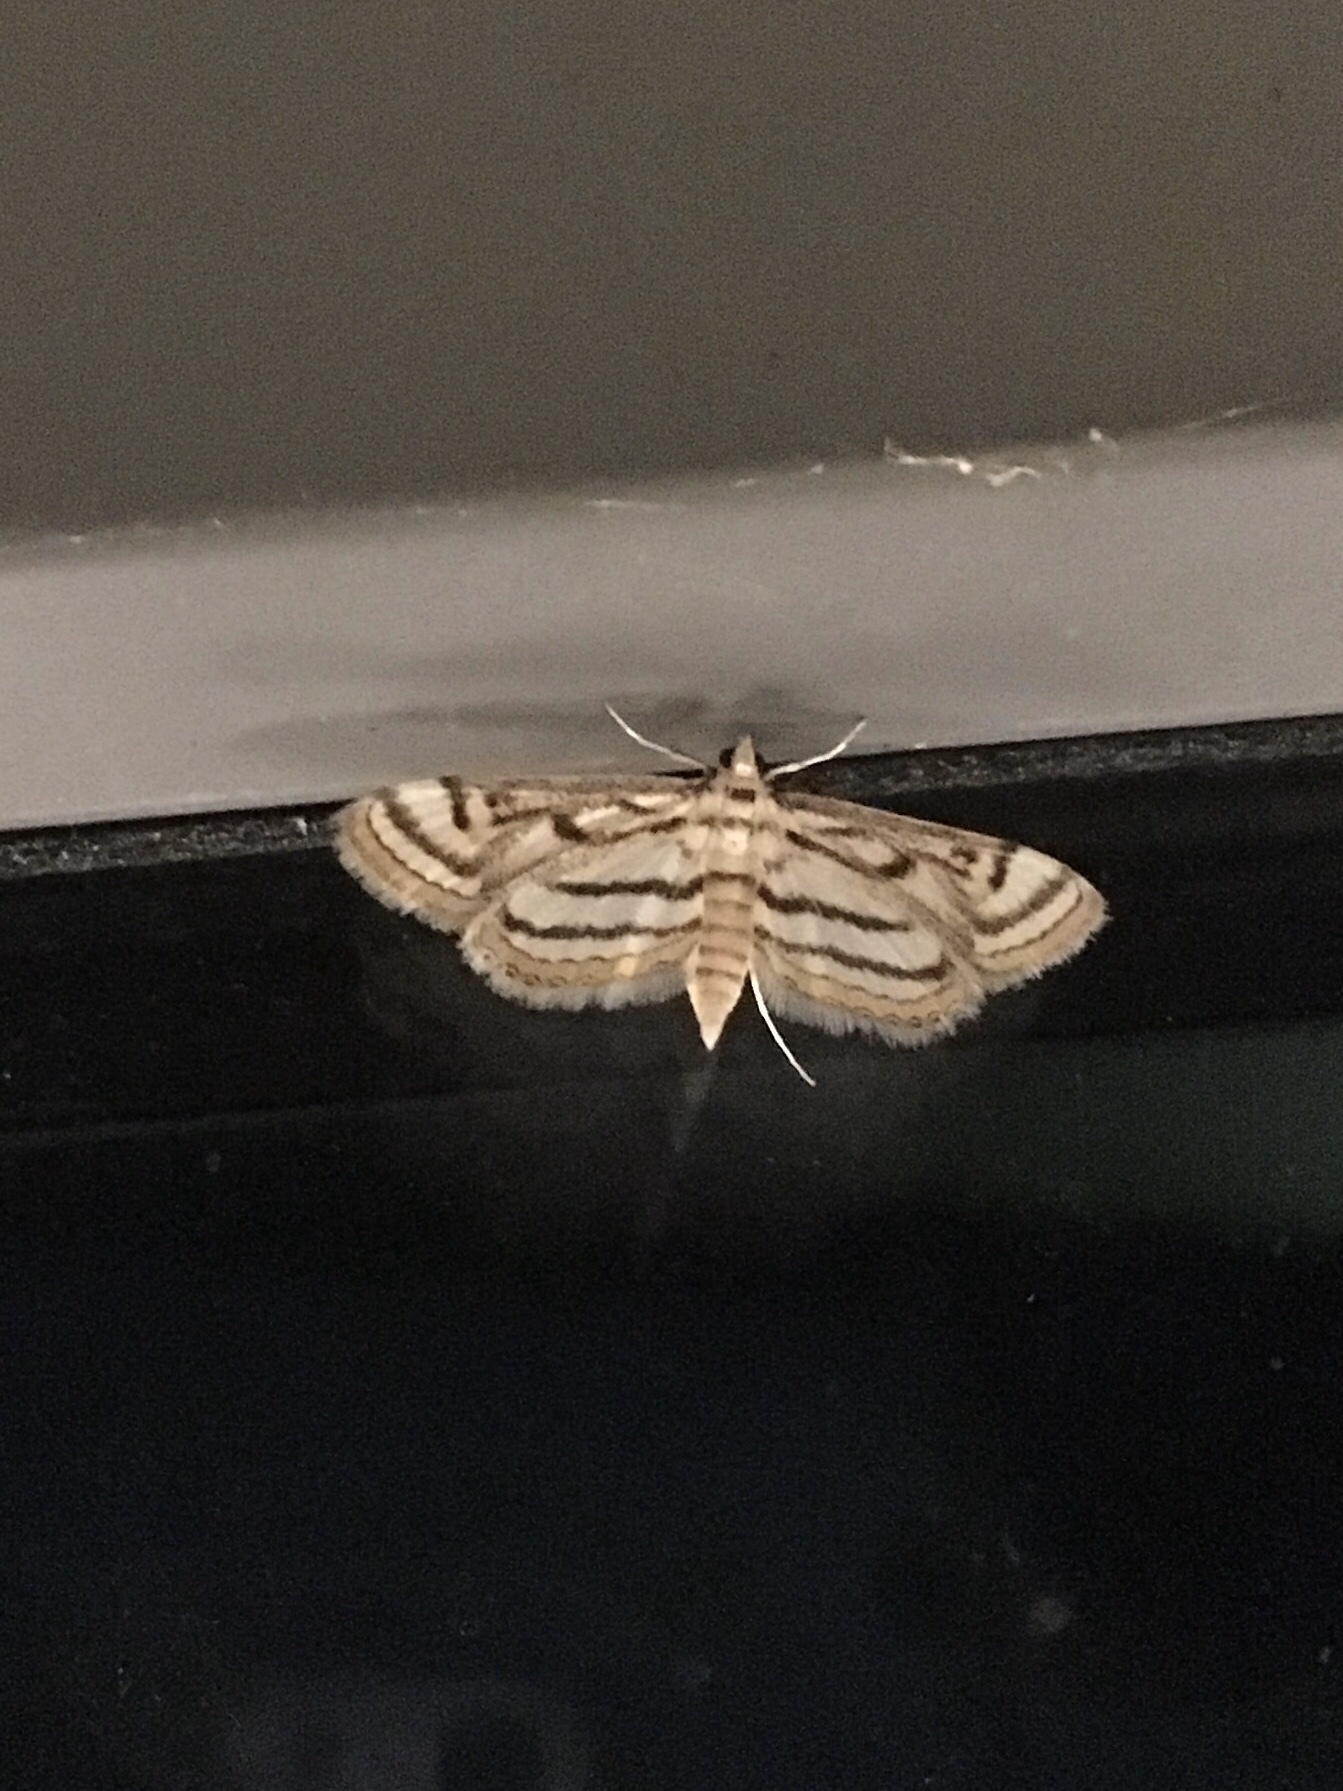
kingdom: Animalia
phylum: Arthropoda
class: Insecta
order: Lepidoptera
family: Crambidae
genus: Parapoynx
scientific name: Parapoynx badiusalis
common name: Chestnut-marked pondweed moth
